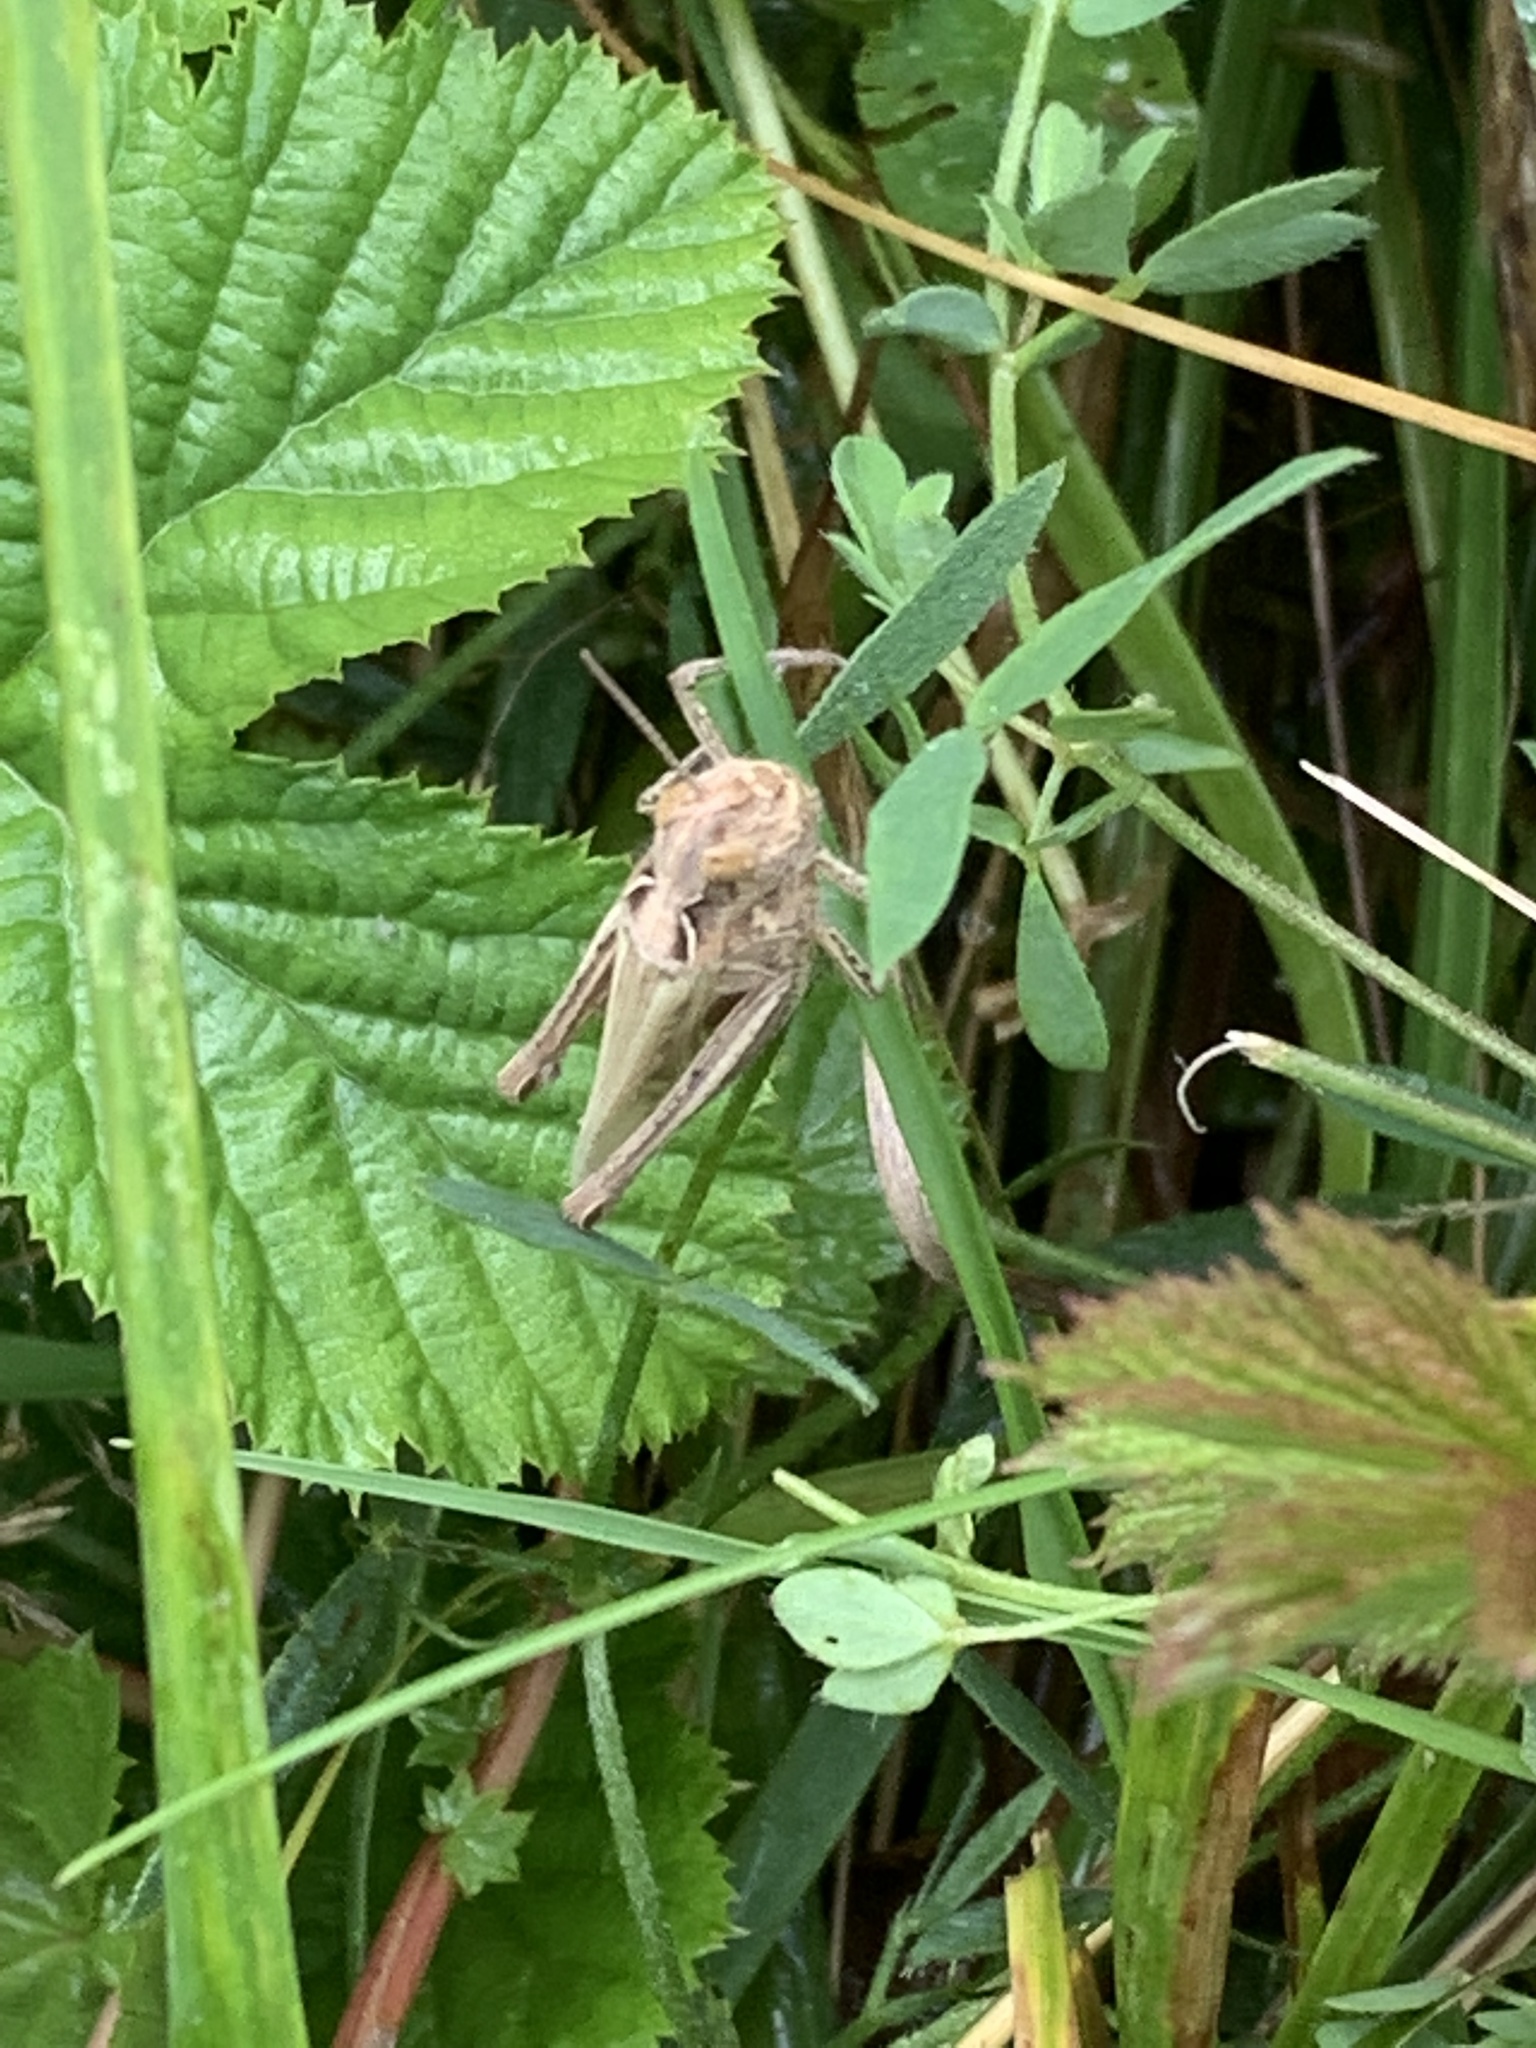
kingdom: Animalia
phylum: Arthropoda
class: Insecta
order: Orthoptera
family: Acrididae
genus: Chorthippus
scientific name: Chorthippus brunneus
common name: Field grasshopper
